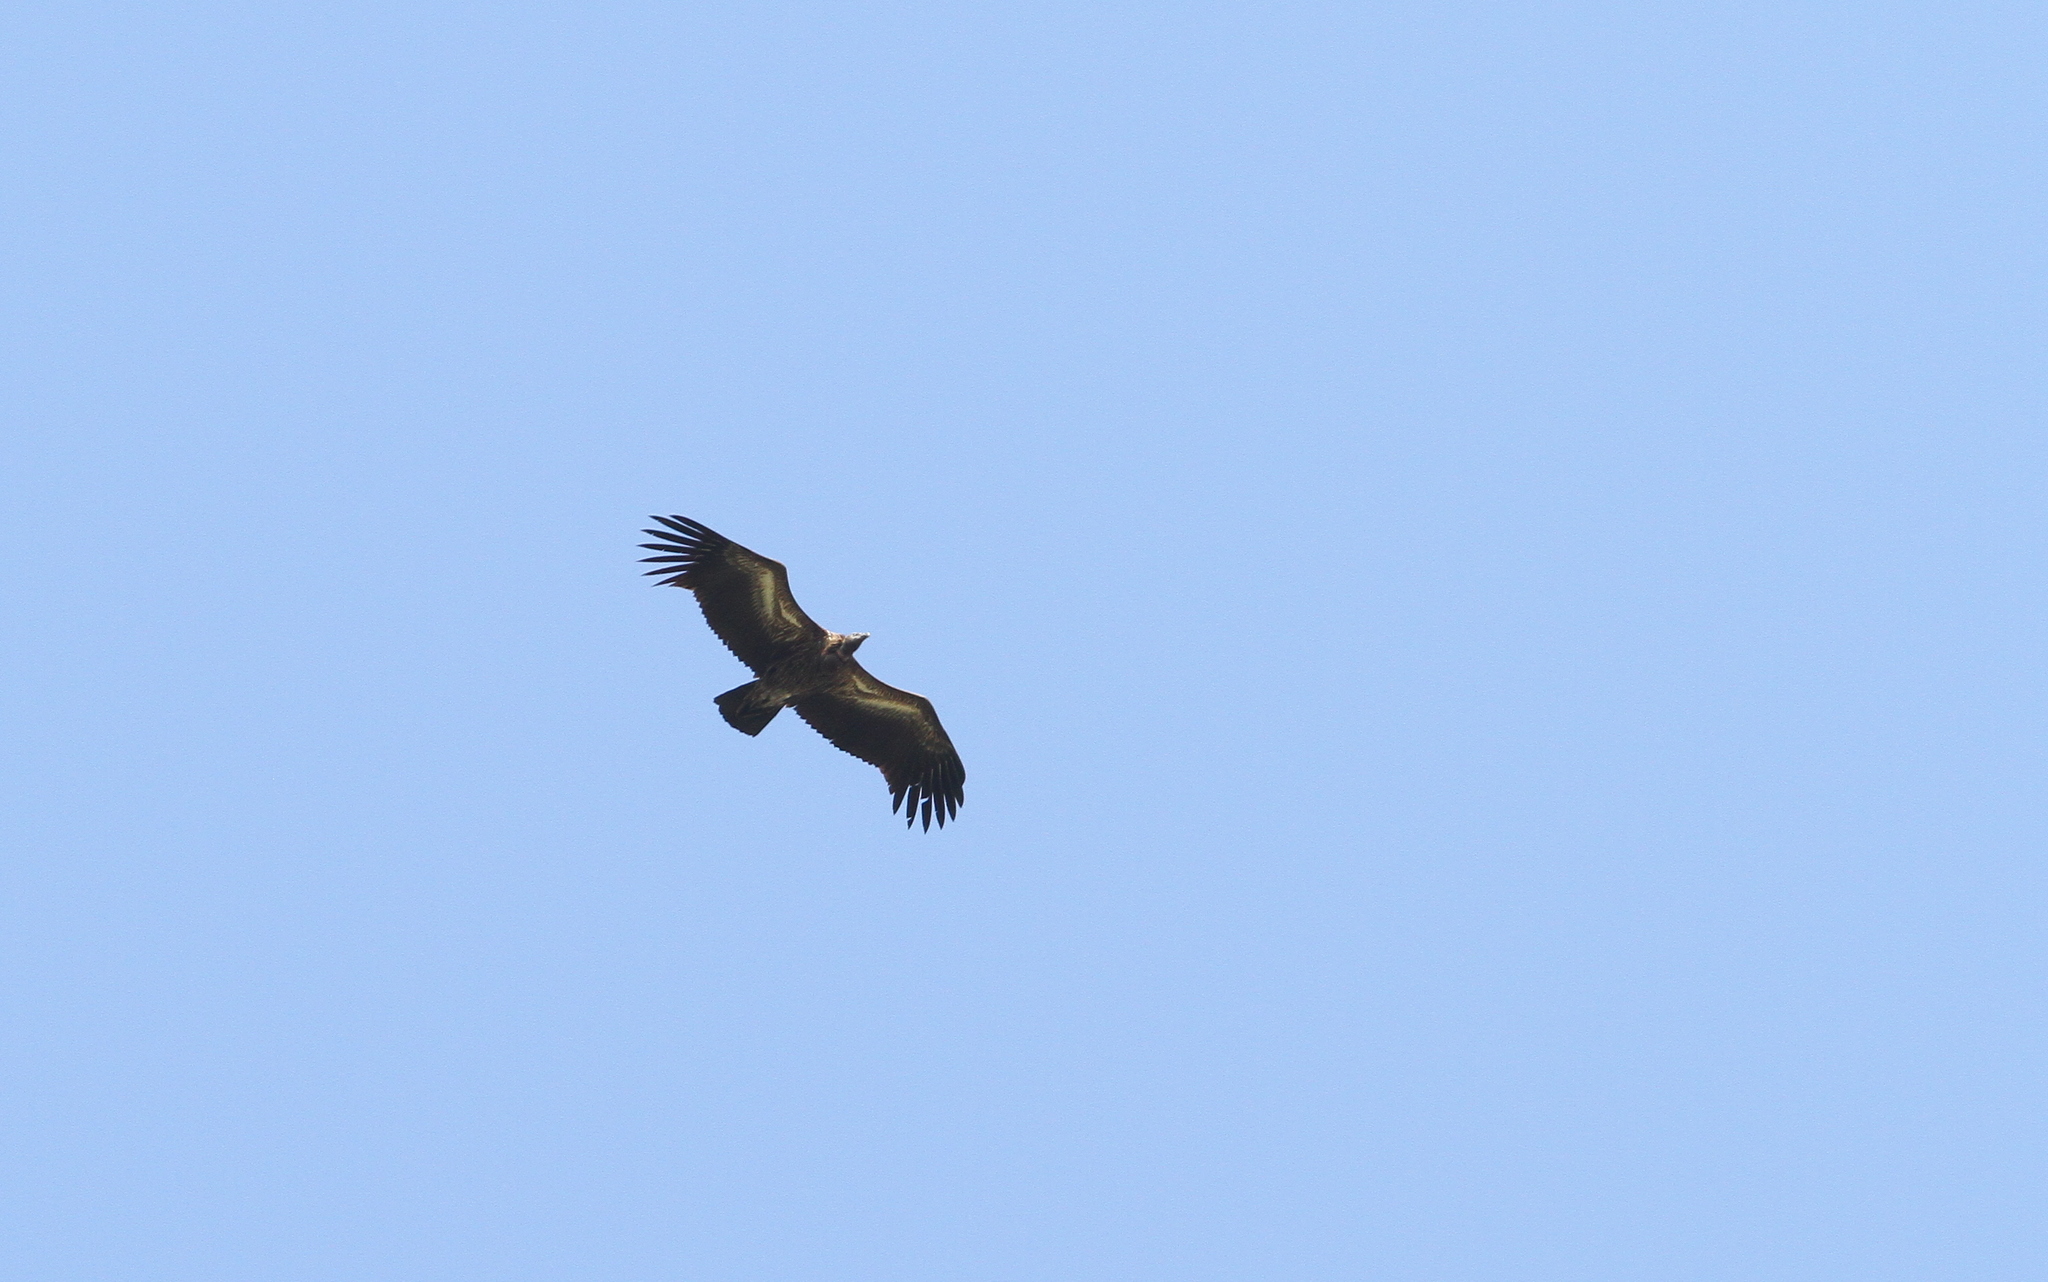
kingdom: Animalia
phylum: Chordata
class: Aves
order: Accipitriformes
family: Accipitridae
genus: Gyps
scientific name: Gyps tenuirostris
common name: Slender-billed vulture
